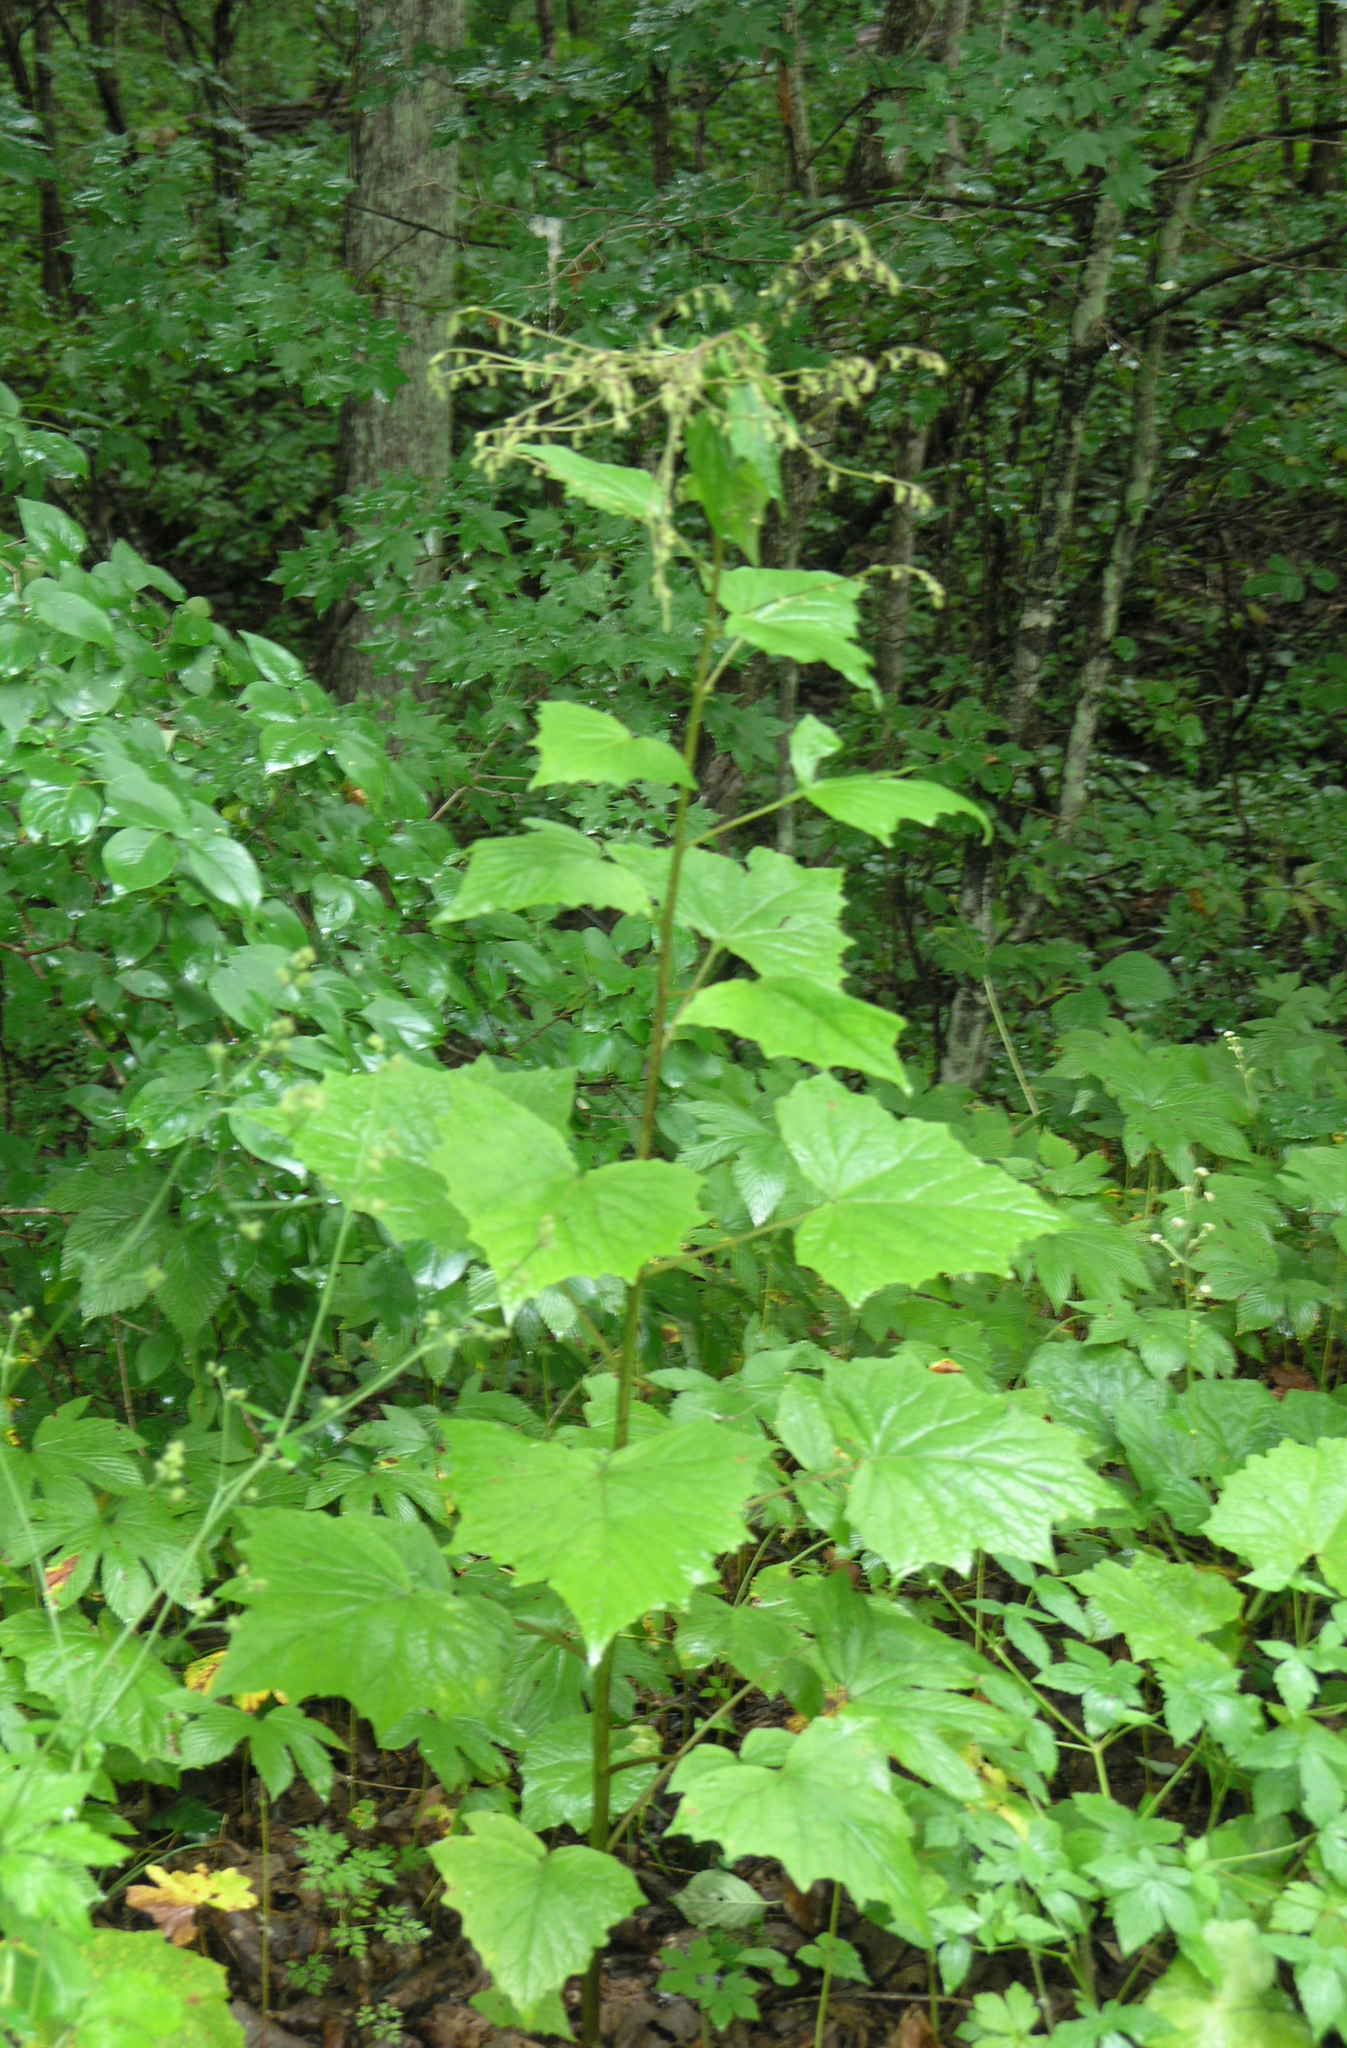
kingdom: Plantae
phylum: Tracheophyta
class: Magnoliopsida
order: Asterales
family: Asteraceae
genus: Nabalus
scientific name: Nabalus tatarinowii
